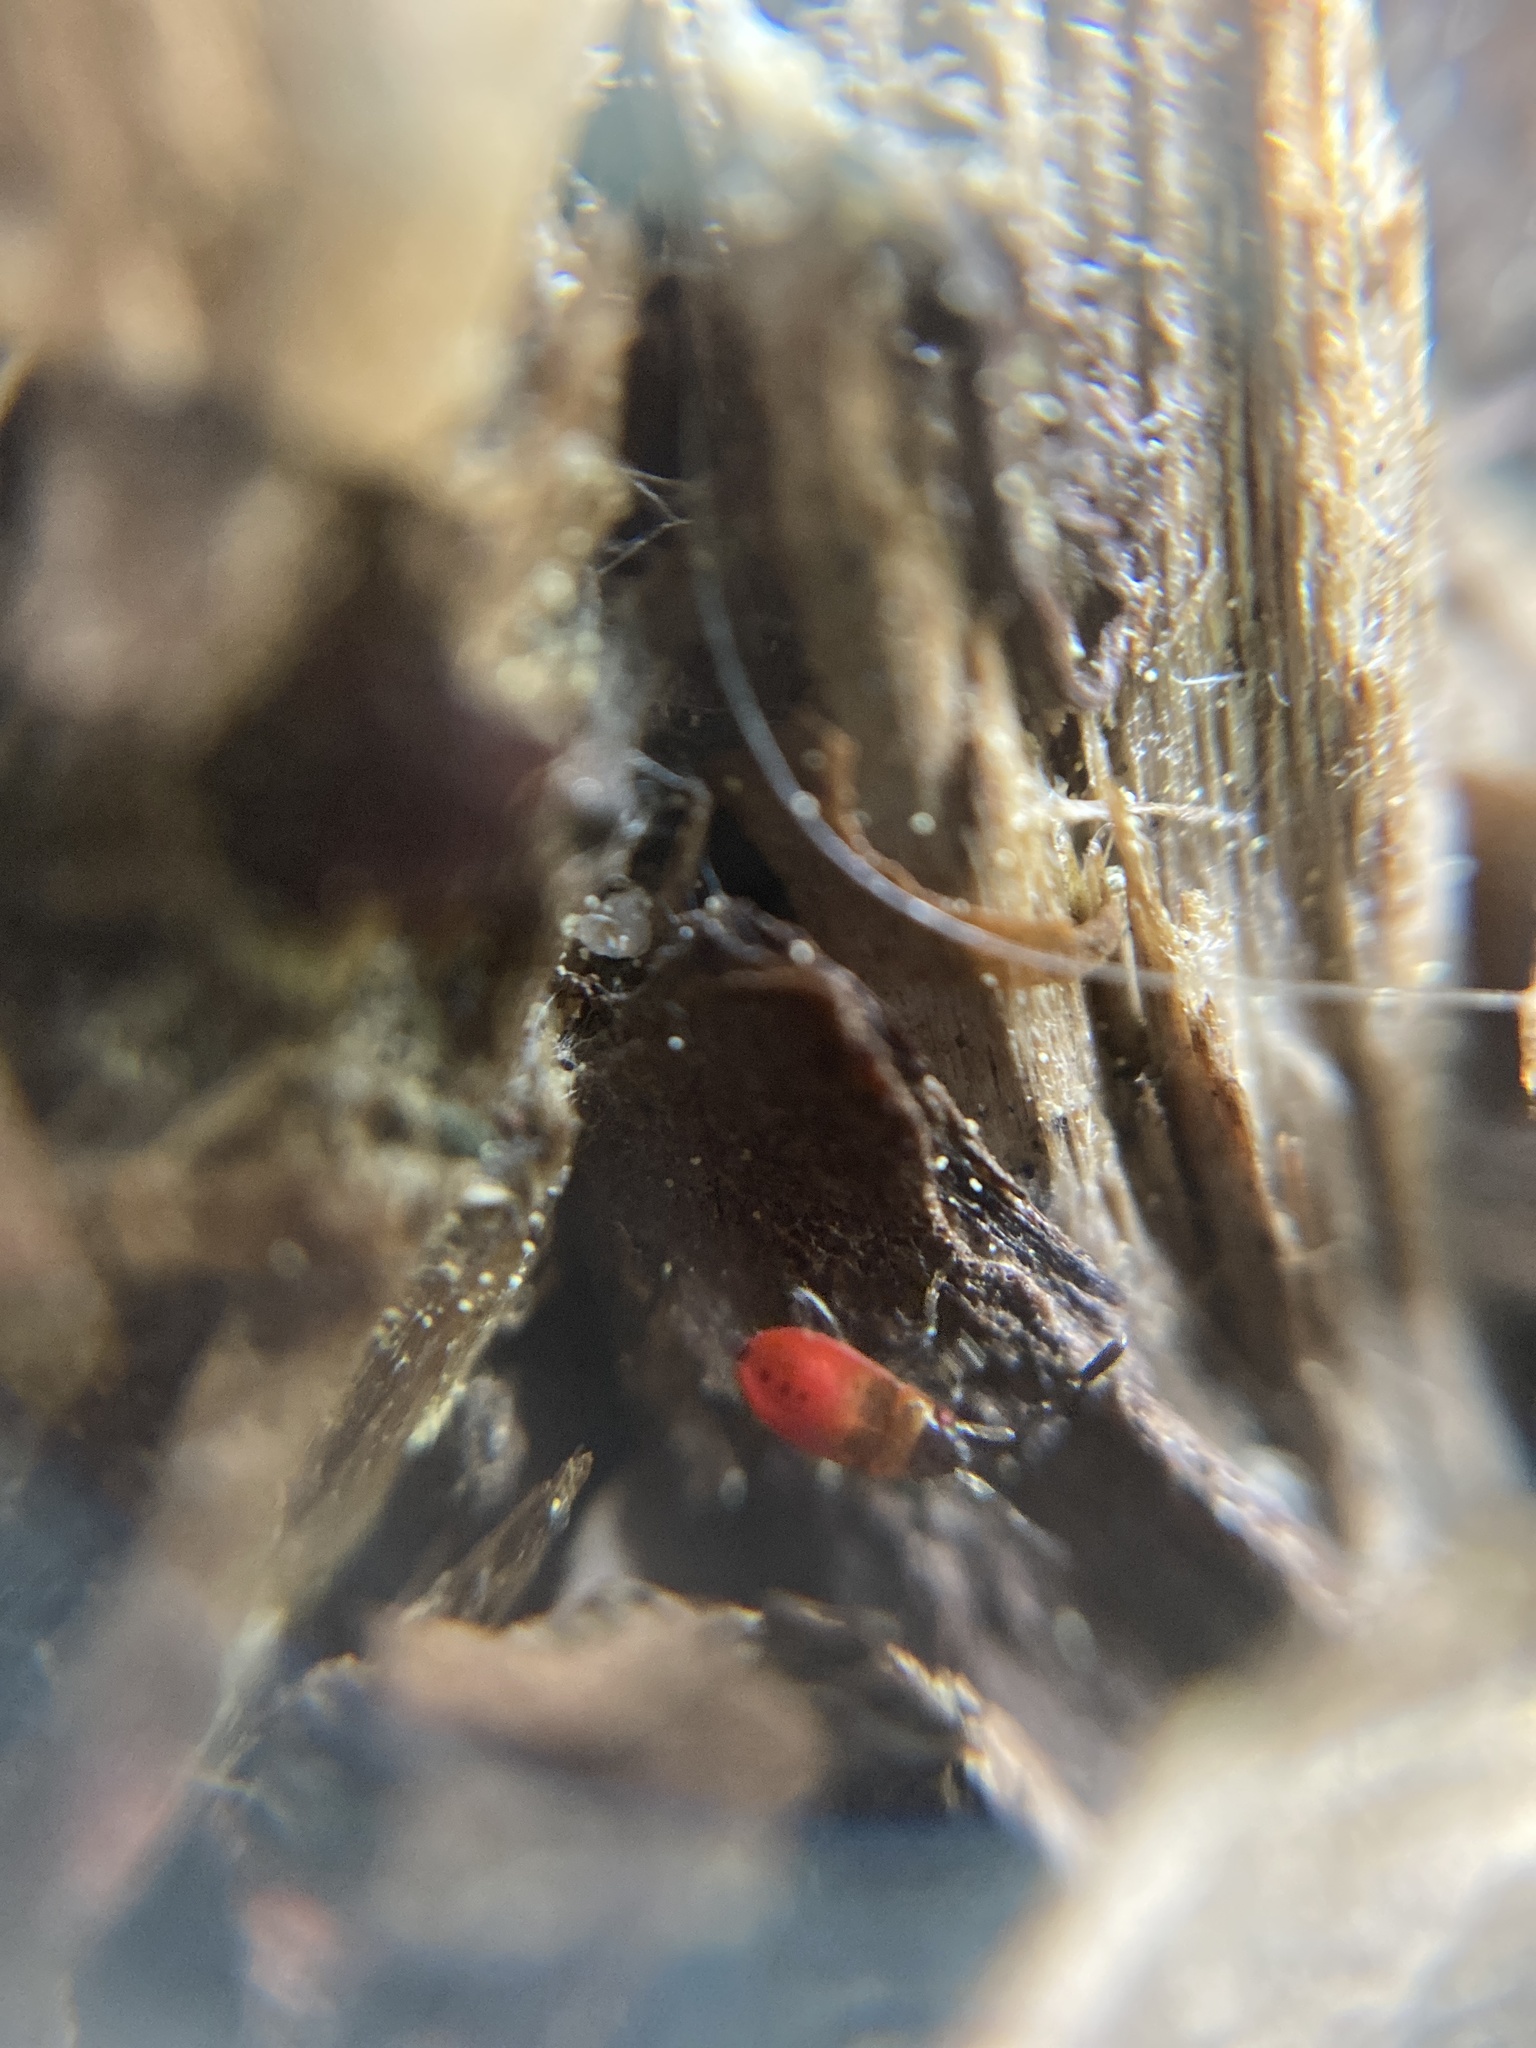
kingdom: Animalia
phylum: Arthropoda
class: Insecta
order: Hemiptera
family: Pyrrhocoridae
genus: Pyrrhocoris
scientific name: Pyrrhocoris apterus
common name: Firebug
